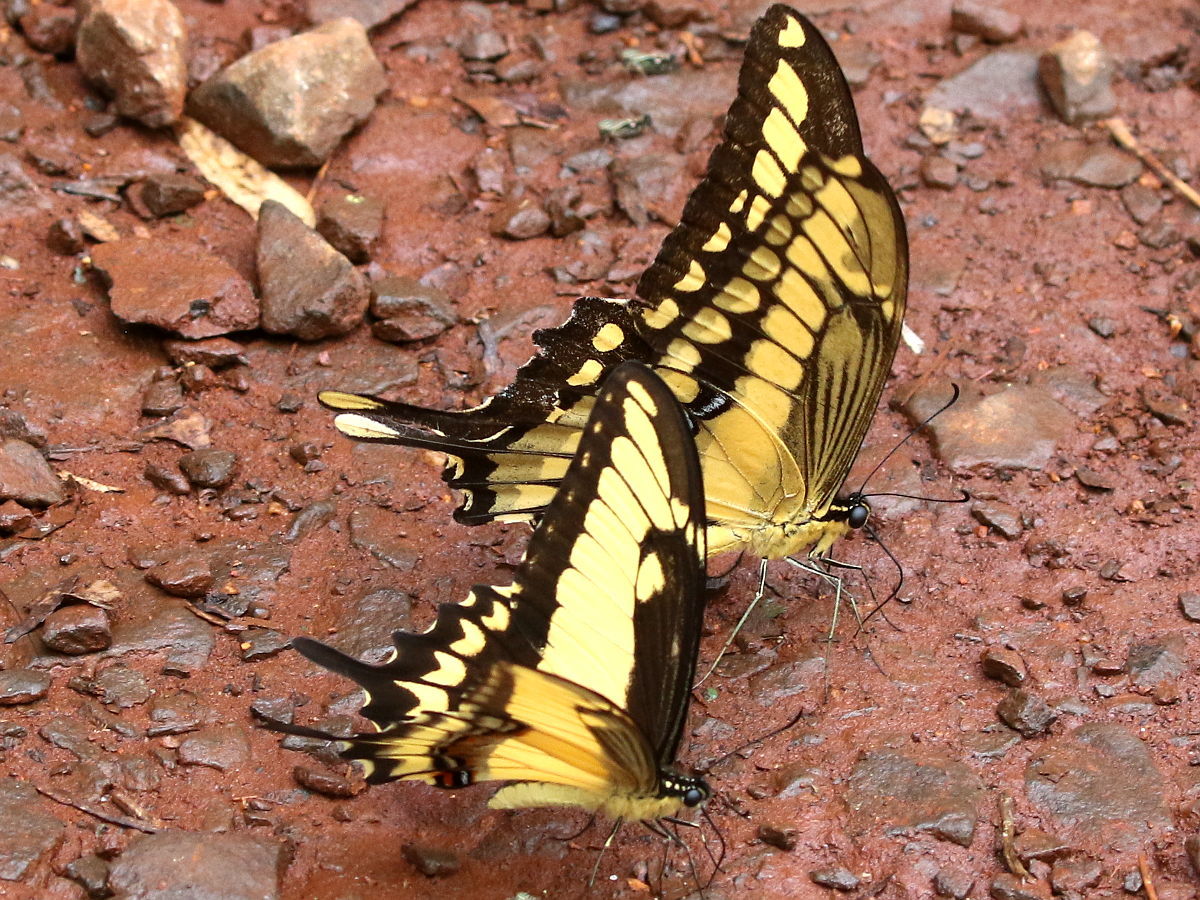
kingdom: Animalia
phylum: Arthropoda
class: Insecta
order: Lepidoptera
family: Papilionidae
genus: Papilio
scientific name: Papilio astyalus
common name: Astyalus swallowtail
